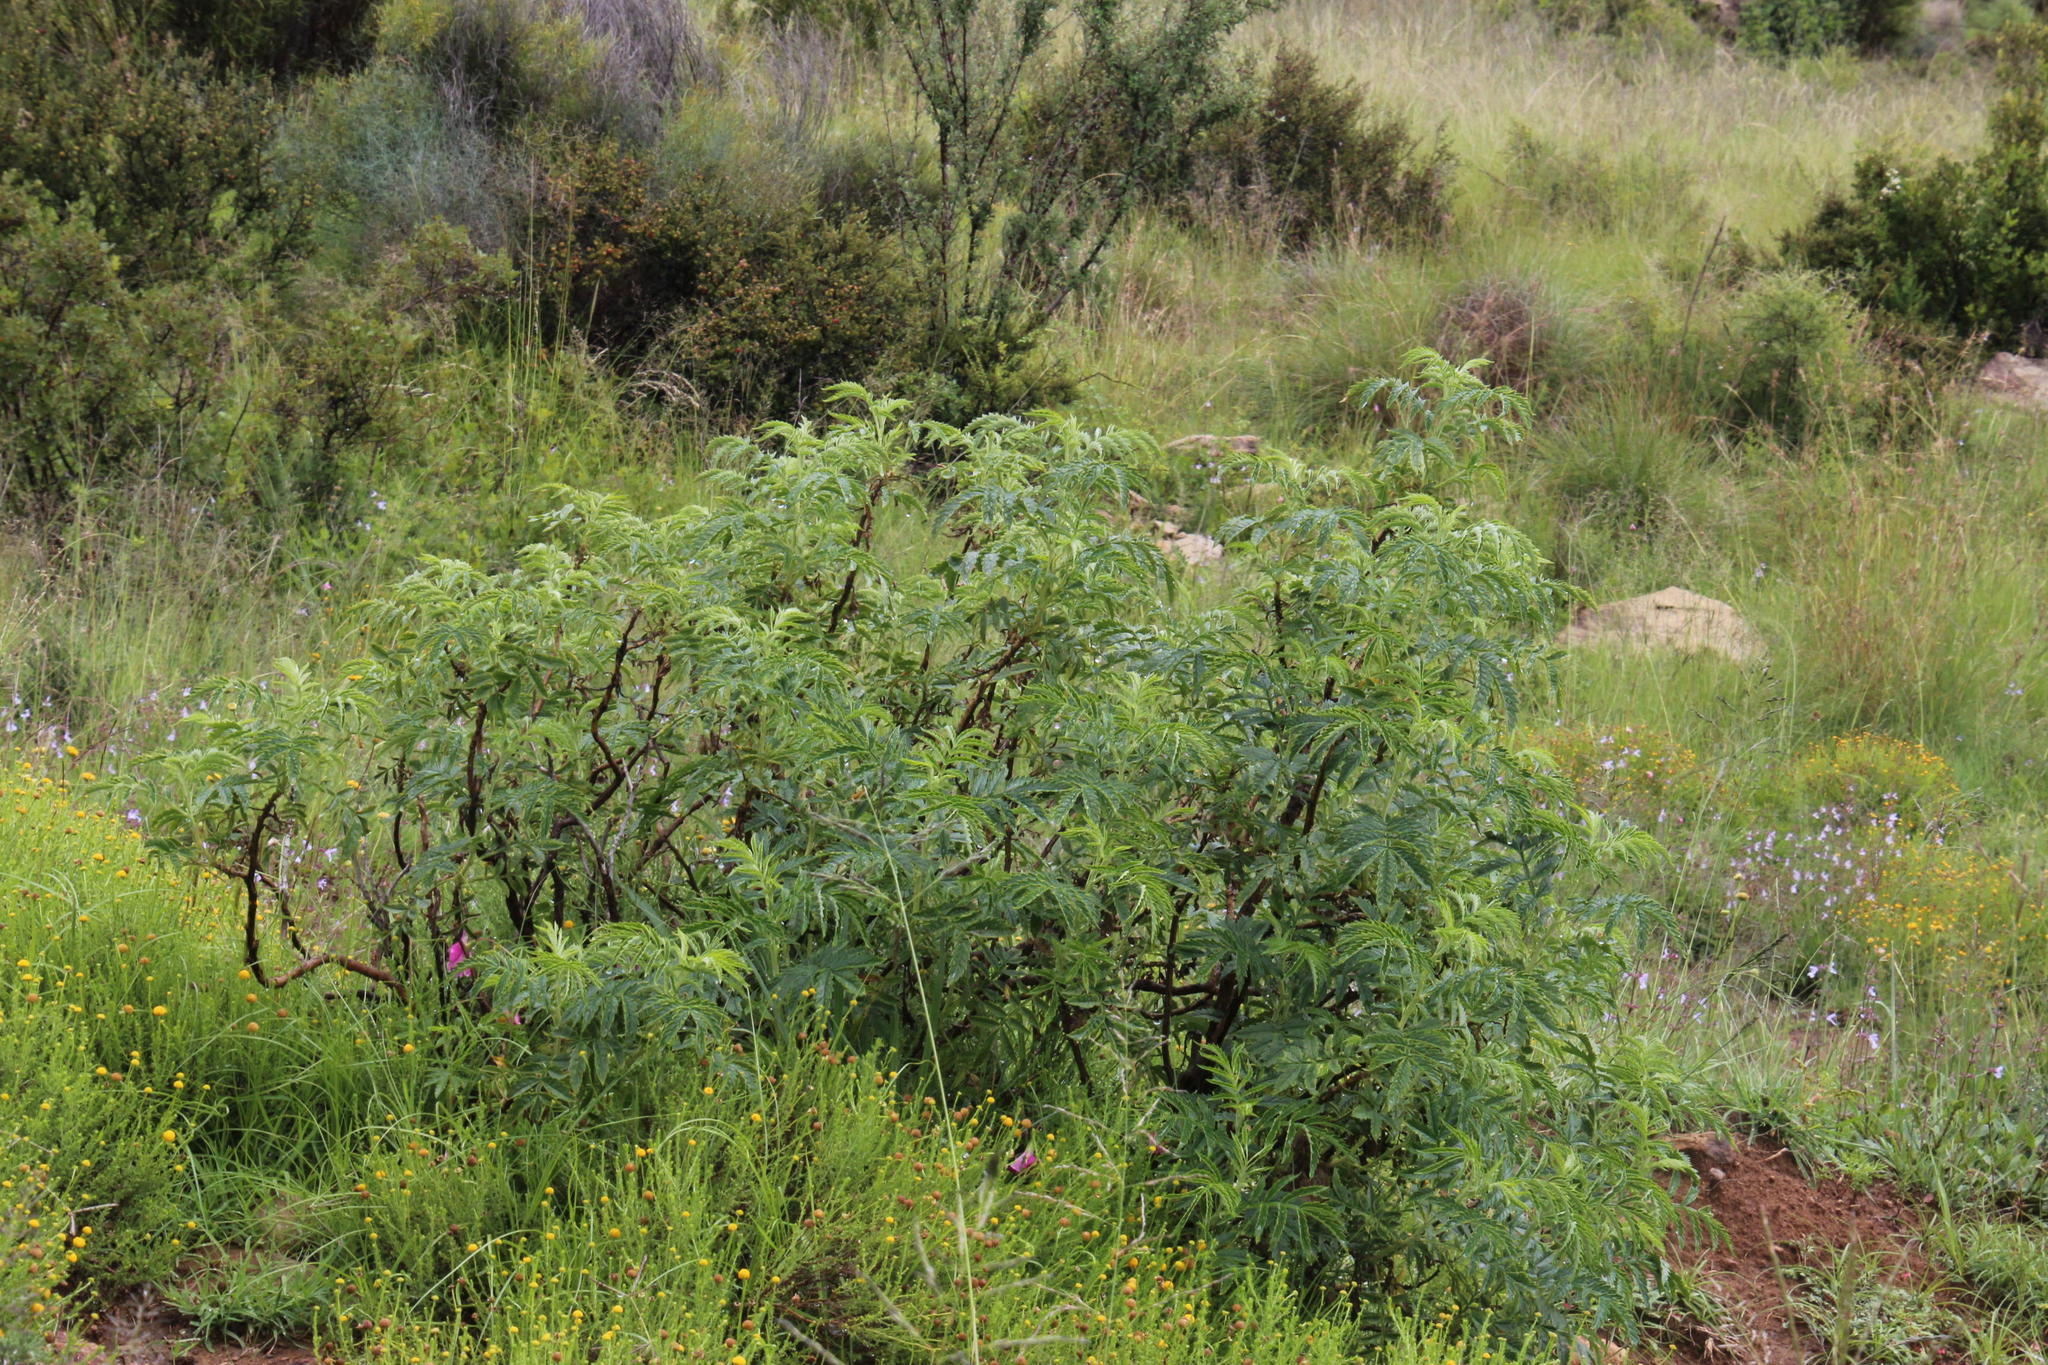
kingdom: Plantae
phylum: Tracheophyta
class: Magnoliopsida
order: Geraniales
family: Melianthaceae
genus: Melianthus
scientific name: Melianthus comosus
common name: Touch-me-not
